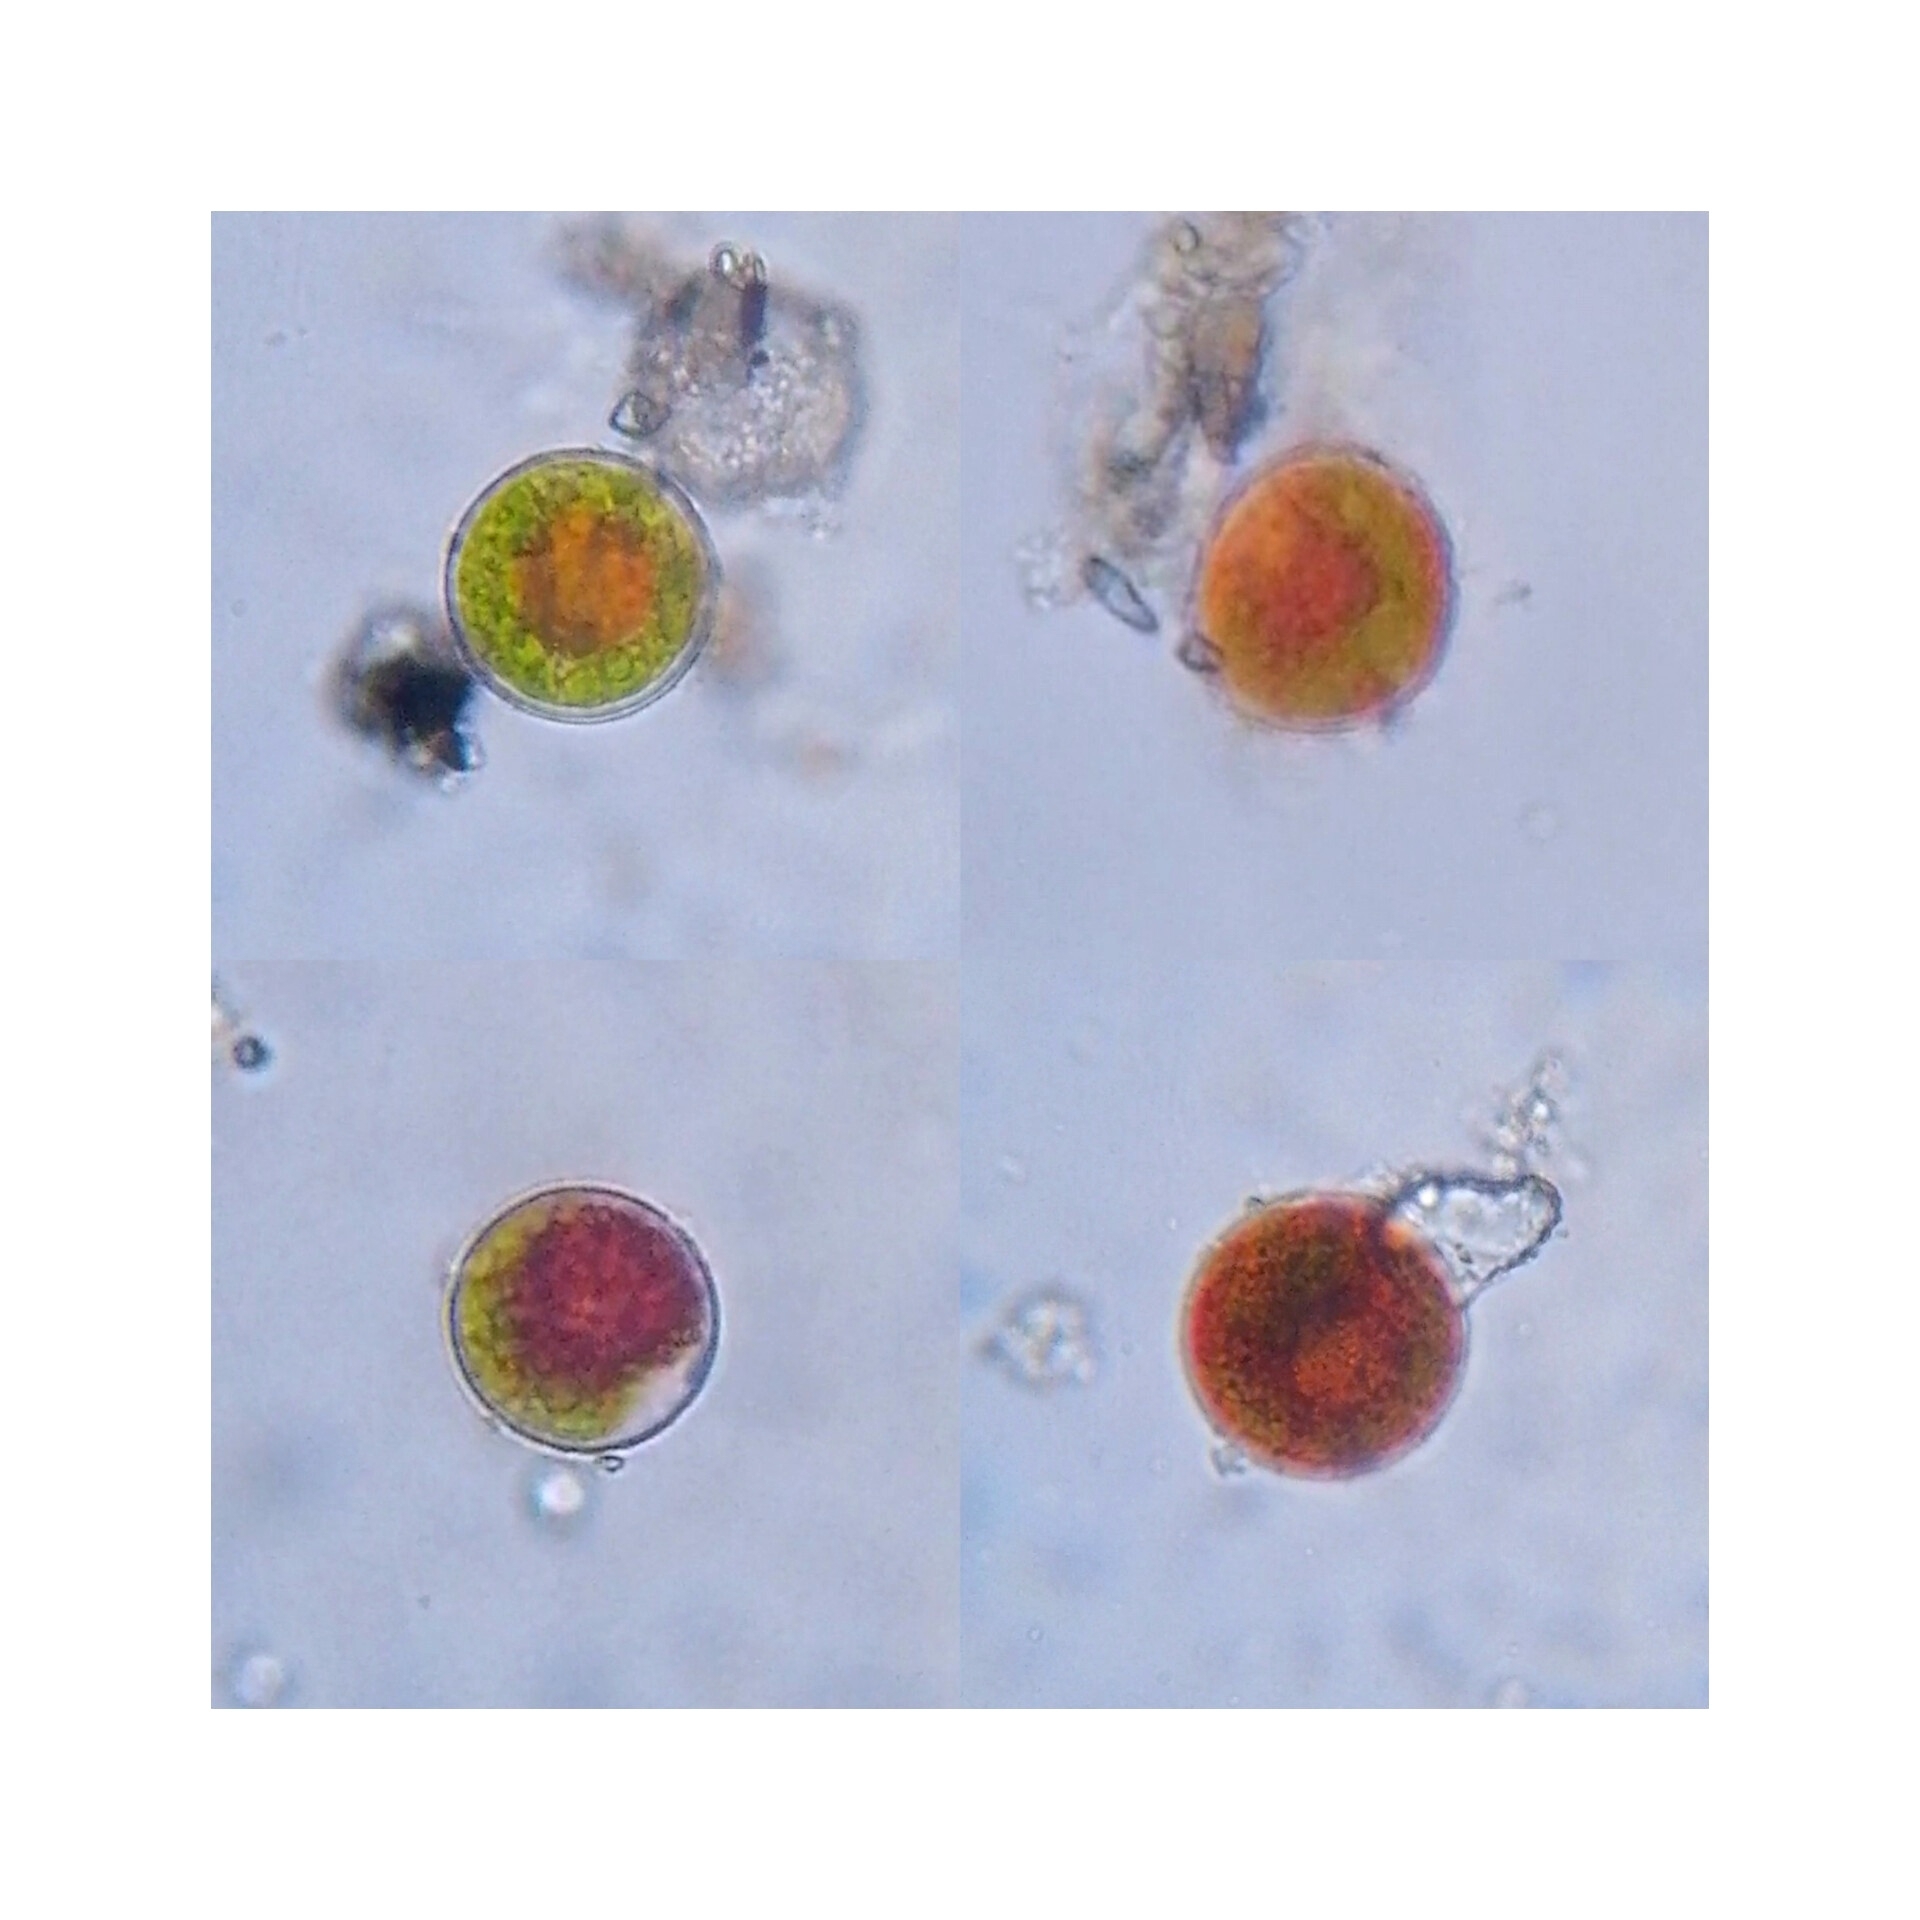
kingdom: Plantae
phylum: Chlorophyta
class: Chlorophyceae
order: Volvocales
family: Haematococcaceae
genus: Haematococcus
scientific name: Haematococcus lacustris
